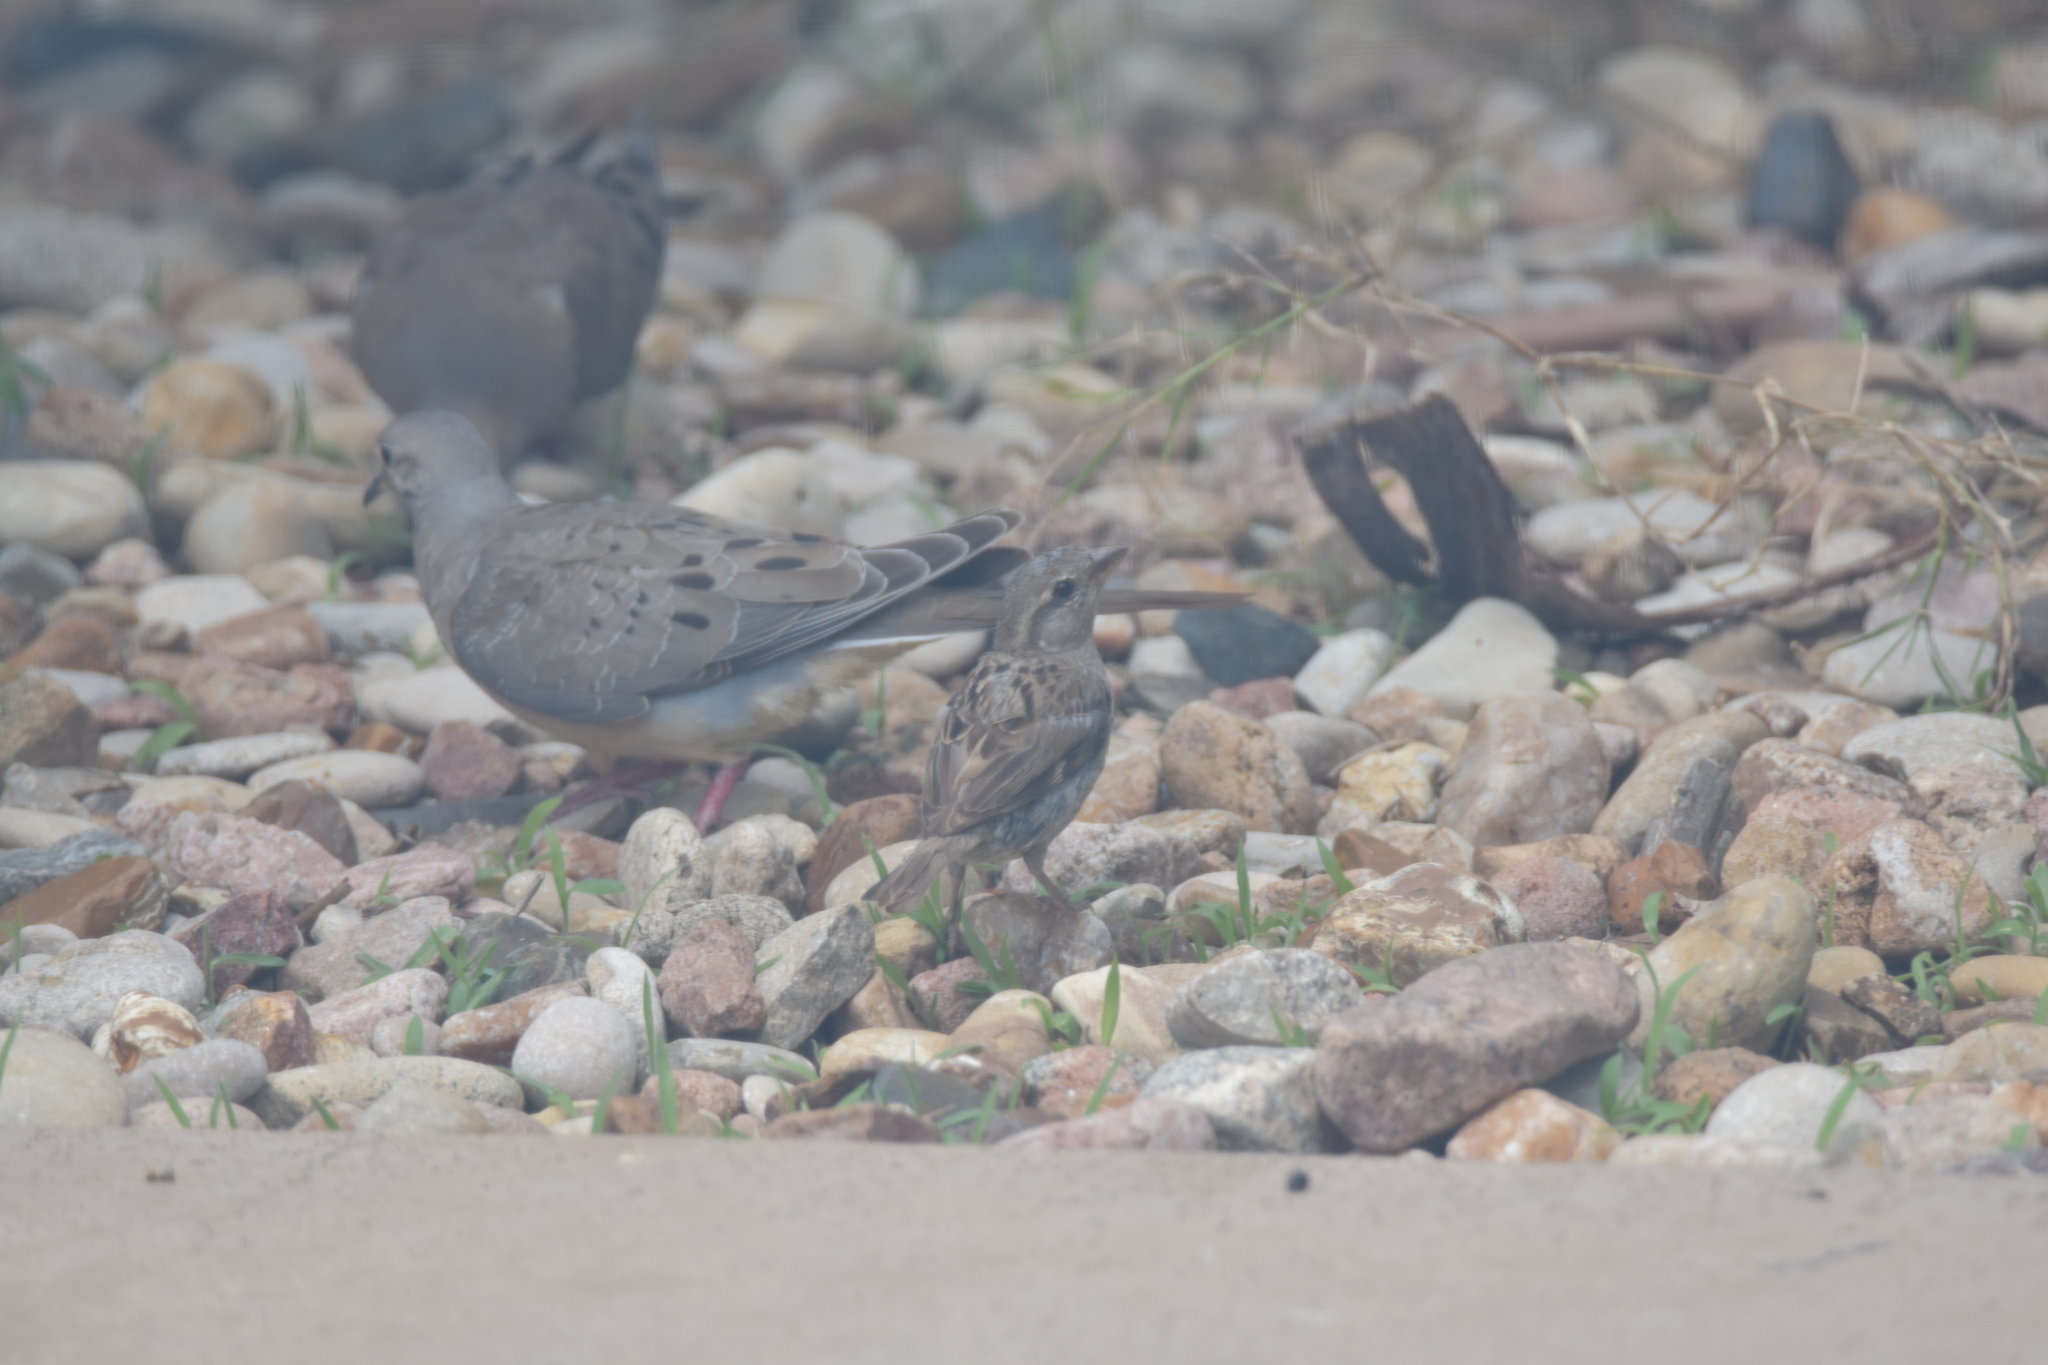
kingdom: Animalia
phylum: Chordata
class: Aves
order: Passeriformes
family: Passeridae
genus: Passer
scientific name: Passer domesticus
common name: House sparrow
